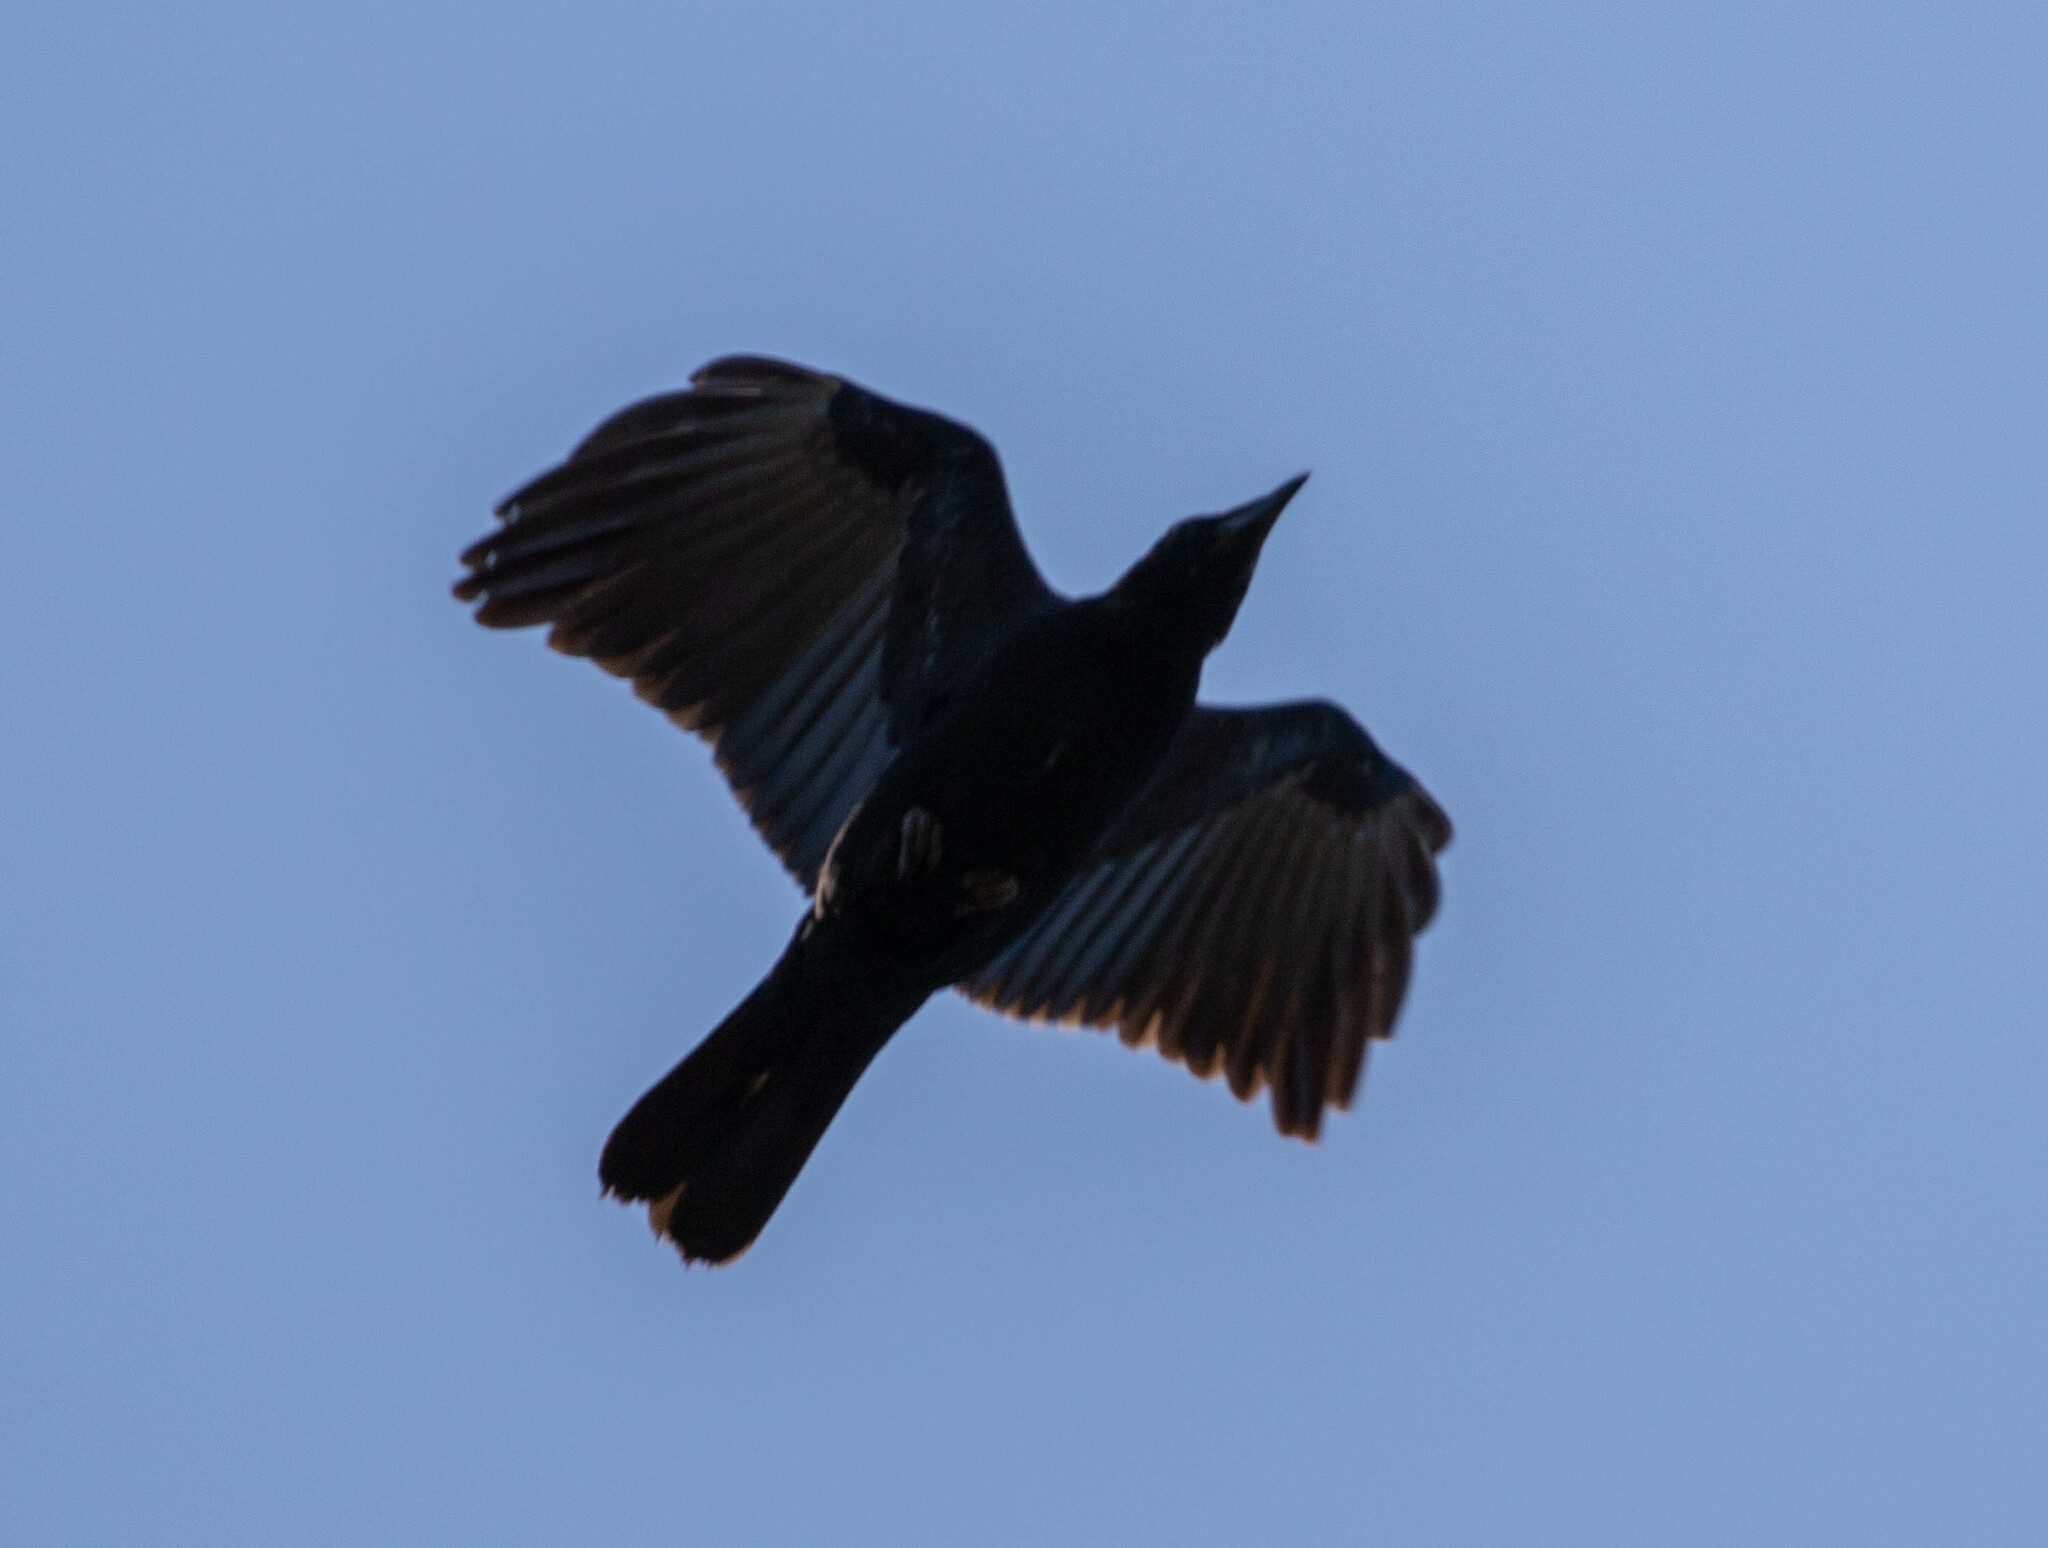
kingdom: Animalia
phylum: Chordata
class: Aves
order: Passeriformes
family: Corvidae
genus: Corvus
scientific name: Corvus brachyrhynchos
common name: American crow
